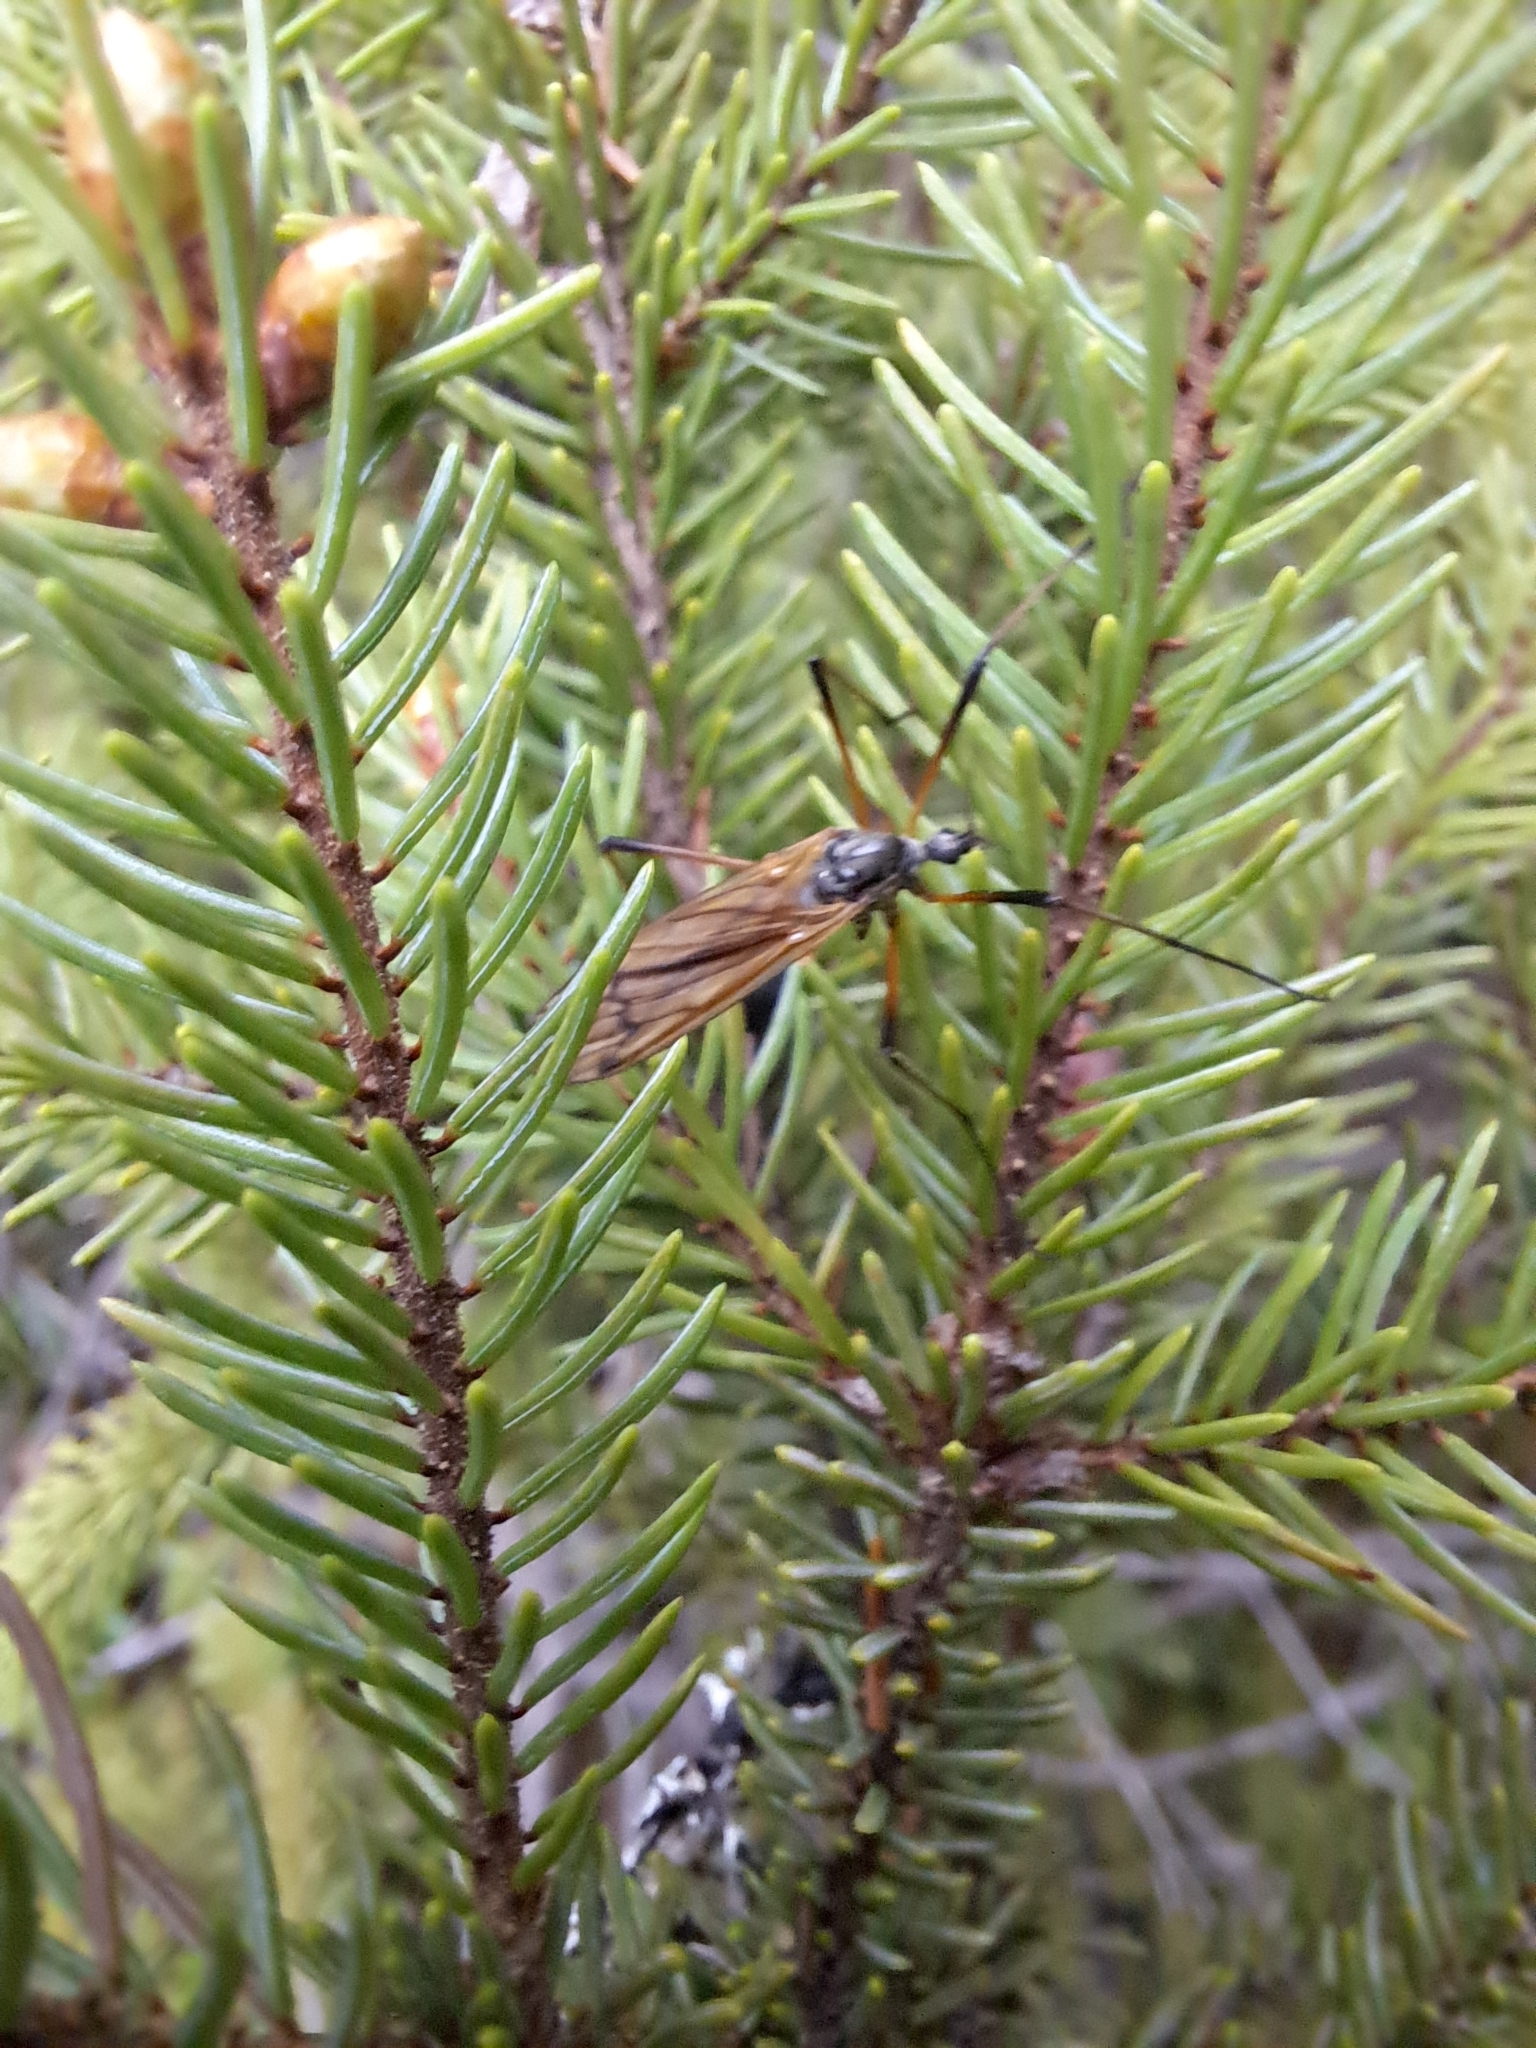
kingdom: Animalia
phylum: Arthropoda
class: Insecta
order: Diptera
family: Limoniidae
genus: Prionolabis
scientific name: Prionolabis rufibasis
